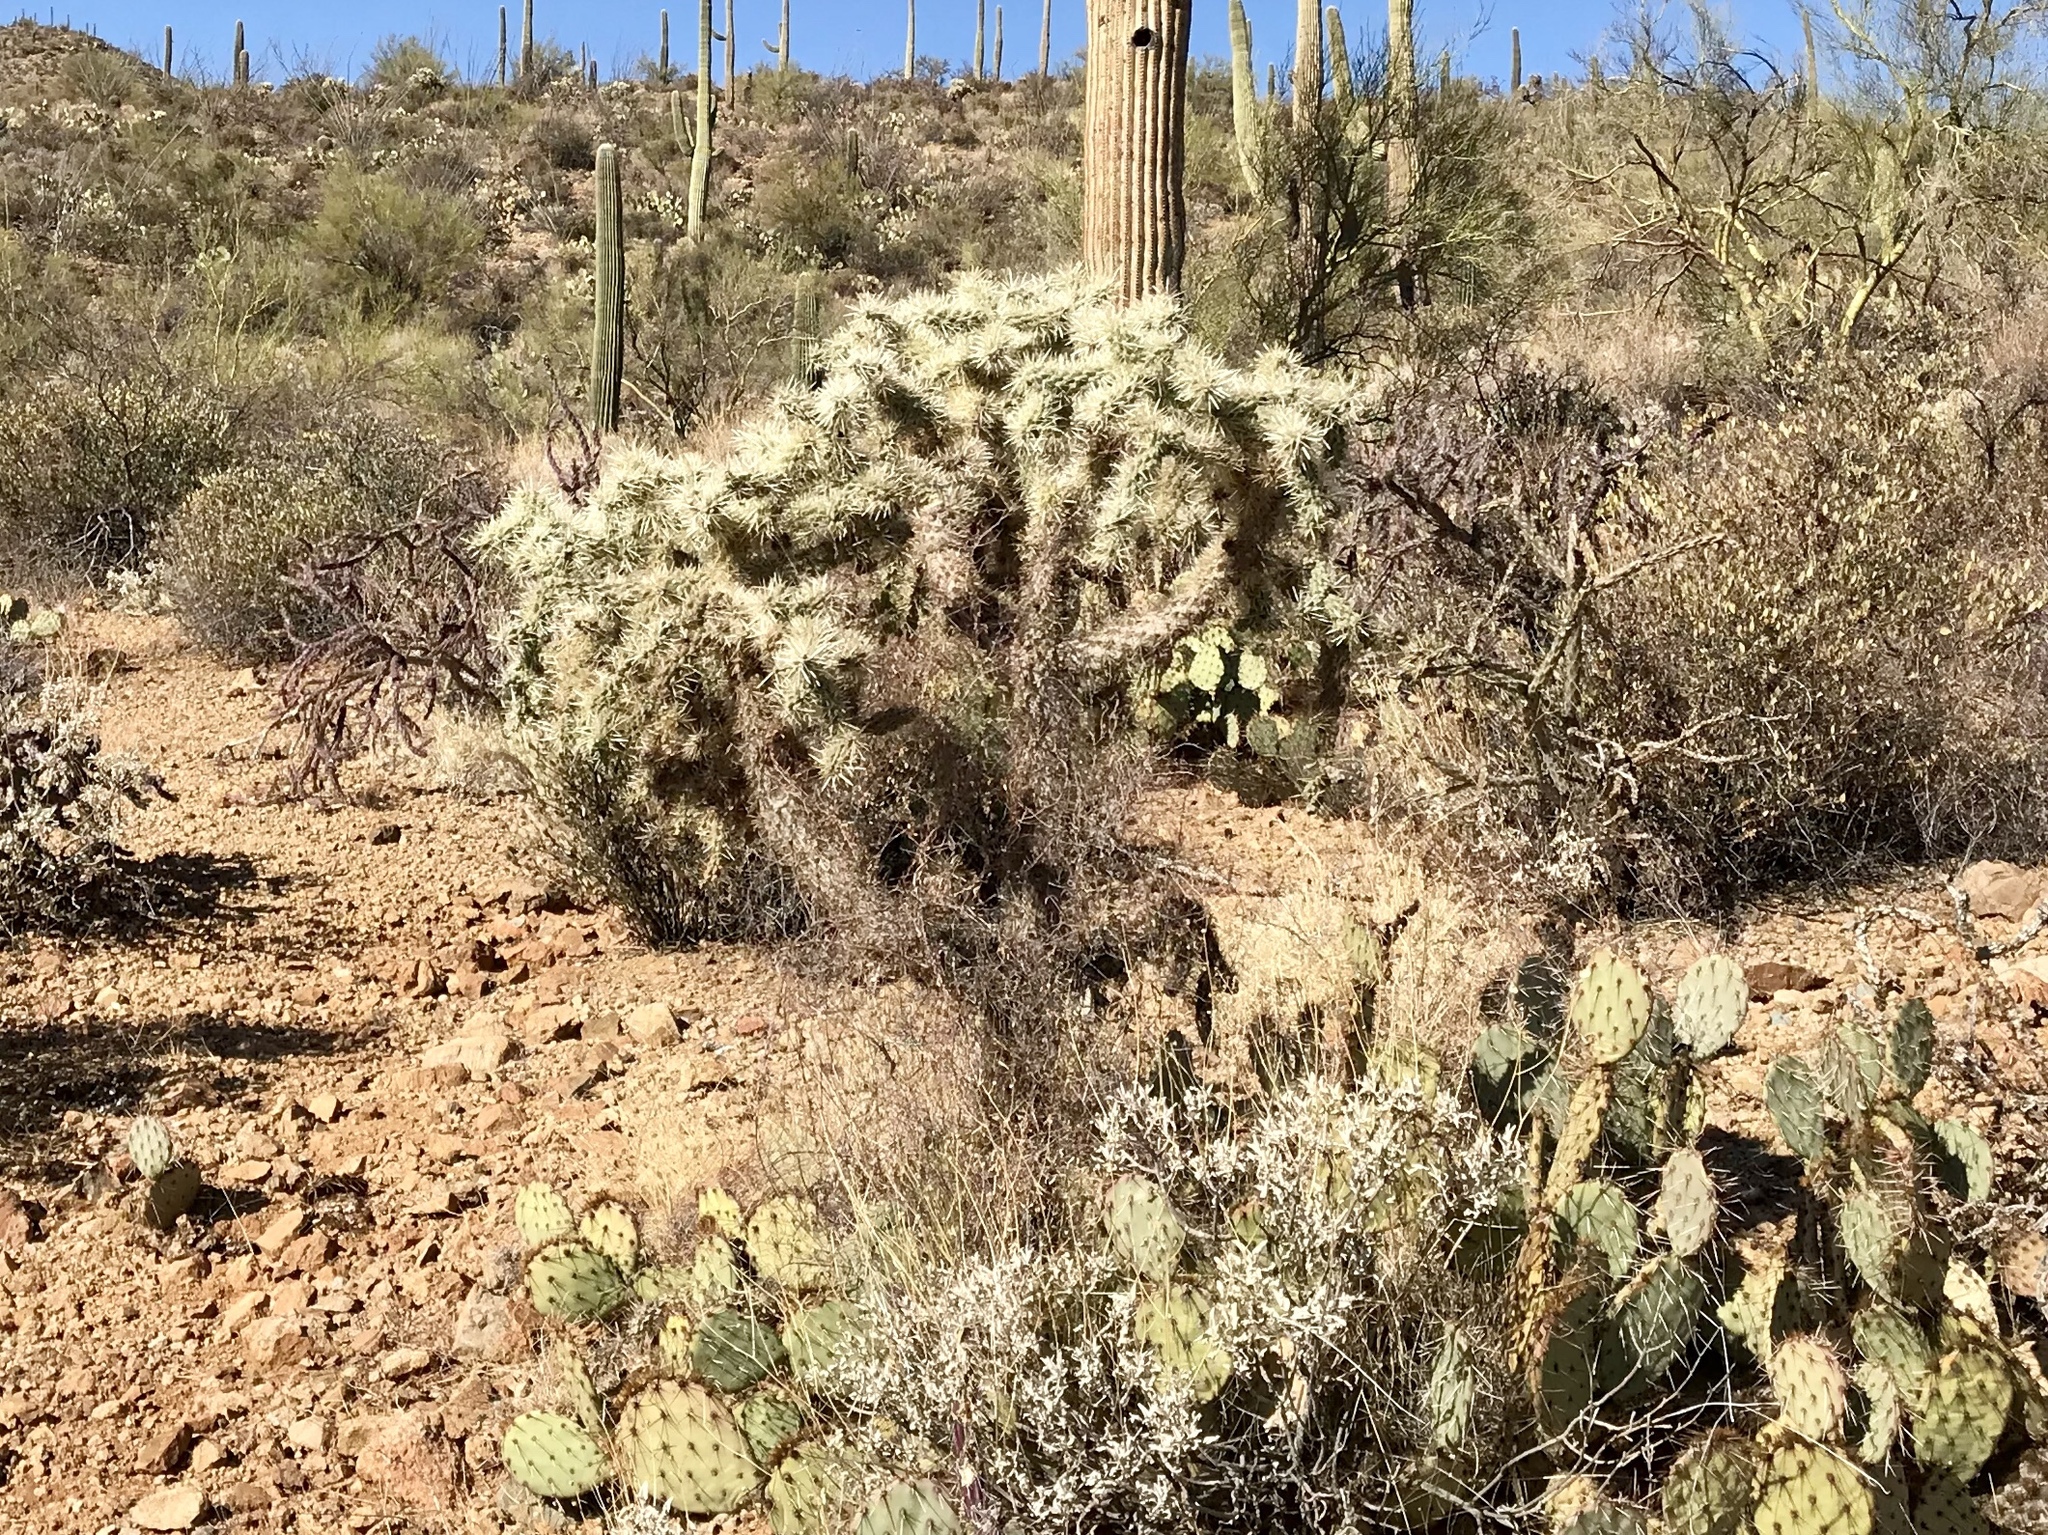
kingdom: Plantae
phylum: Tracheophyta
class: Magnoliopsida
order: Caryophyllales
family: Cactaceae
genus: Cylindropuntia
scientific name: Cylindropuntia fulgida
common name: Jumping cholla
